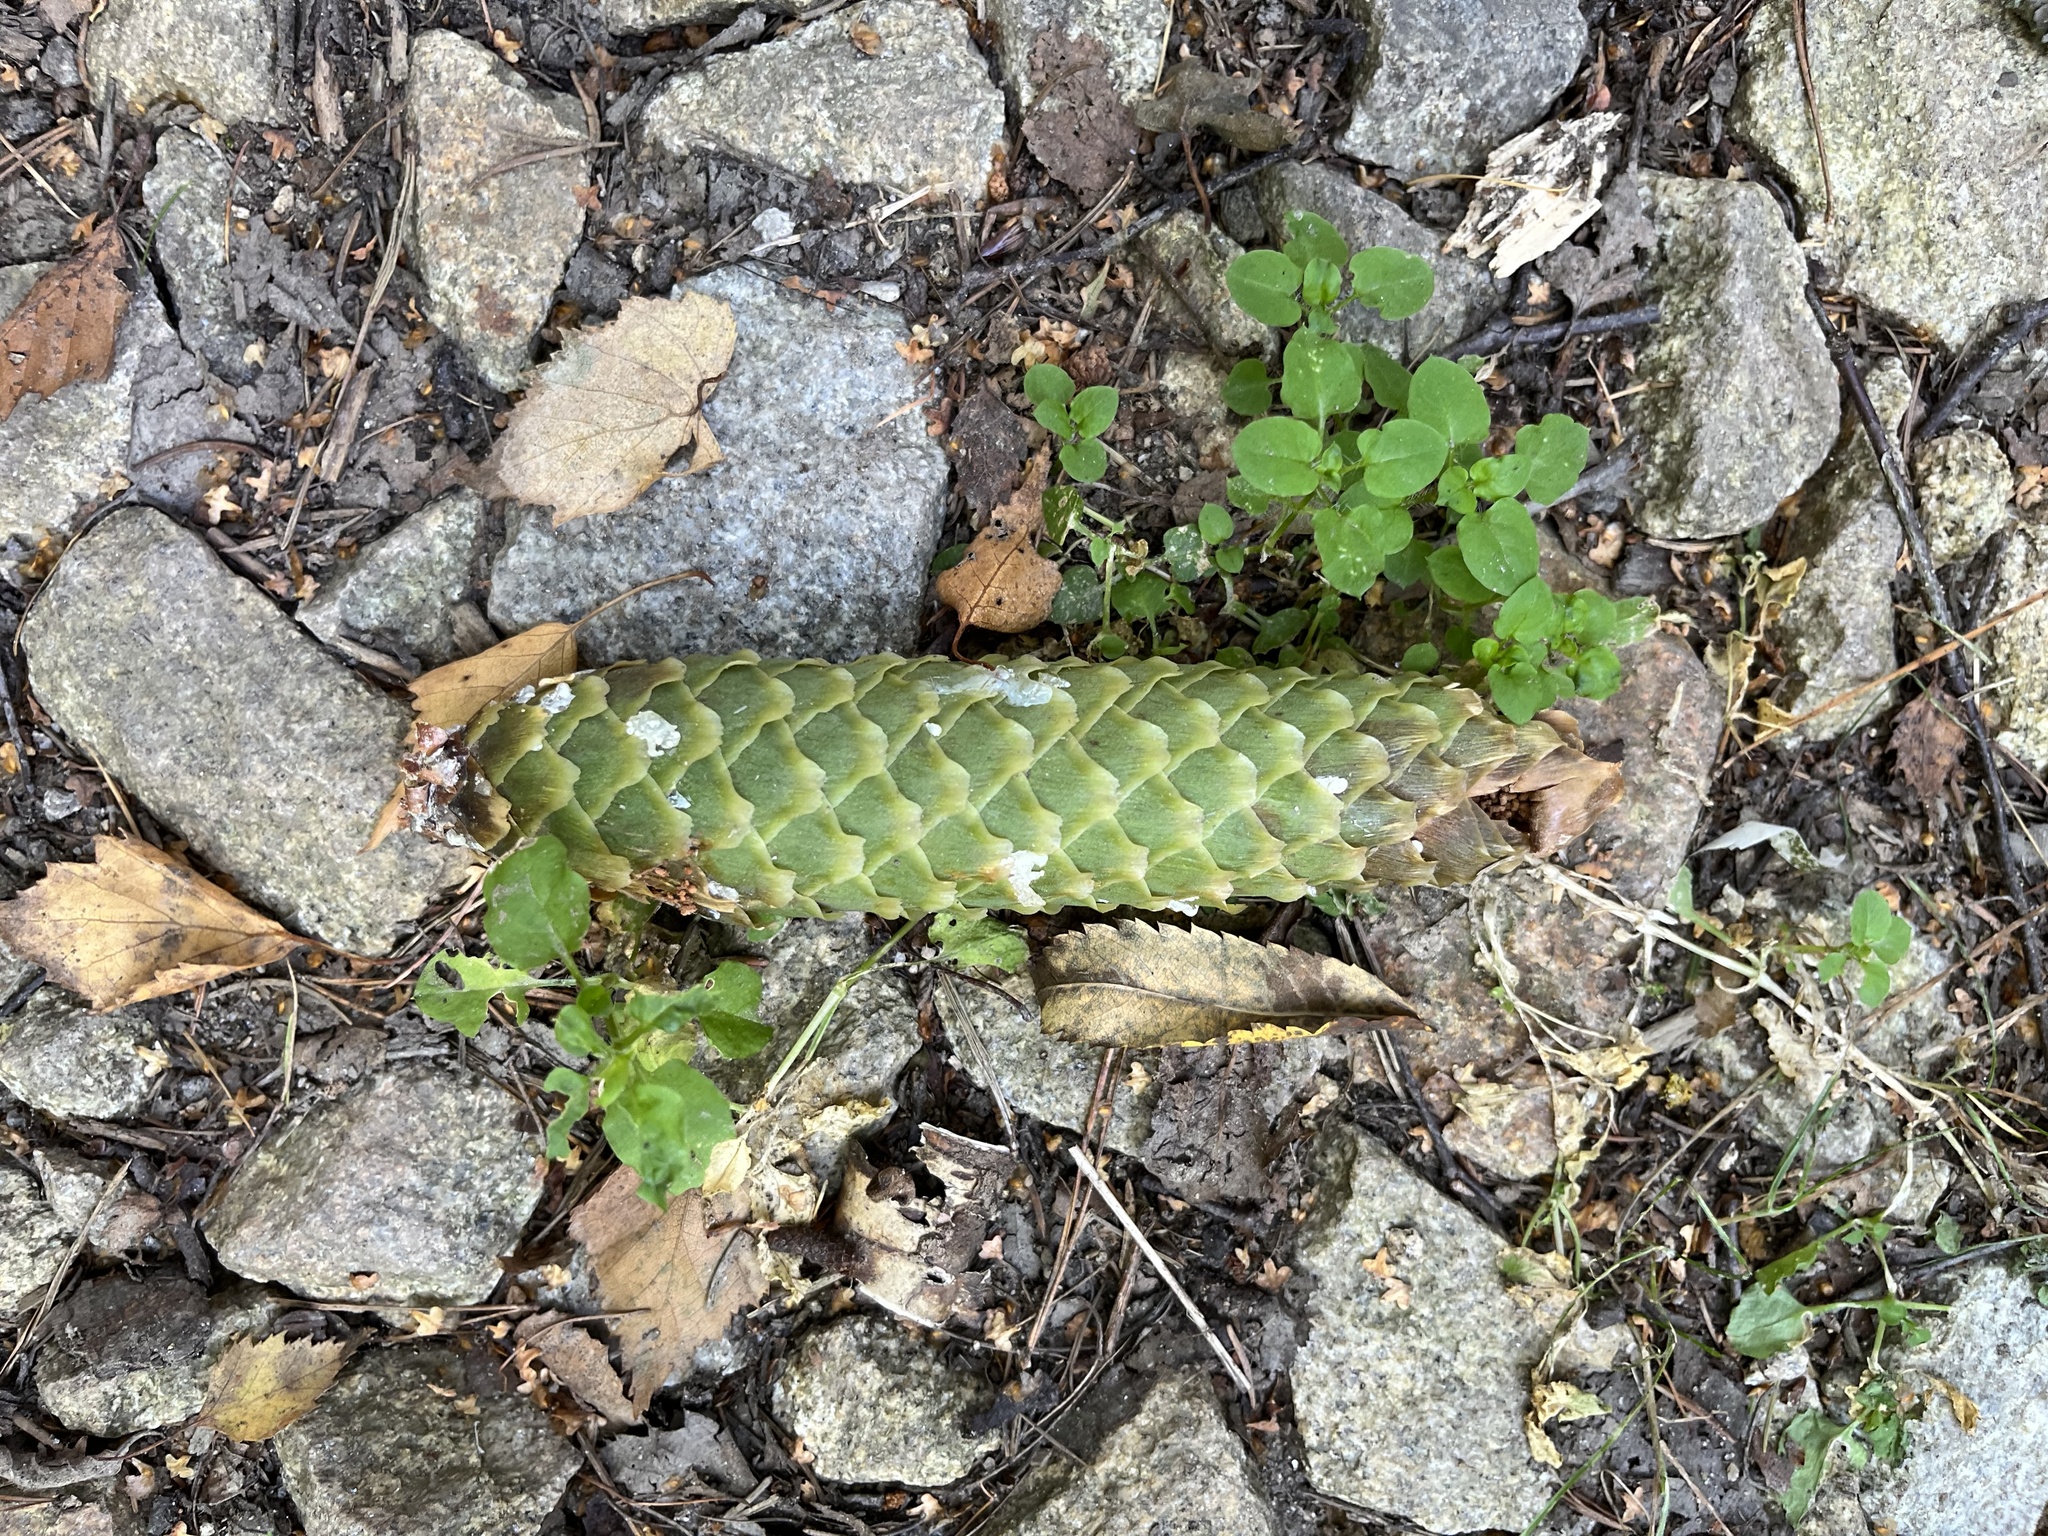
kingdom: Plantae
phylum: Tracheophyta
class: Pinopsida
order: Pinales
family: Pinaceae
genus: Picea
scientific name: Picea abies
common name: Norway spruce
